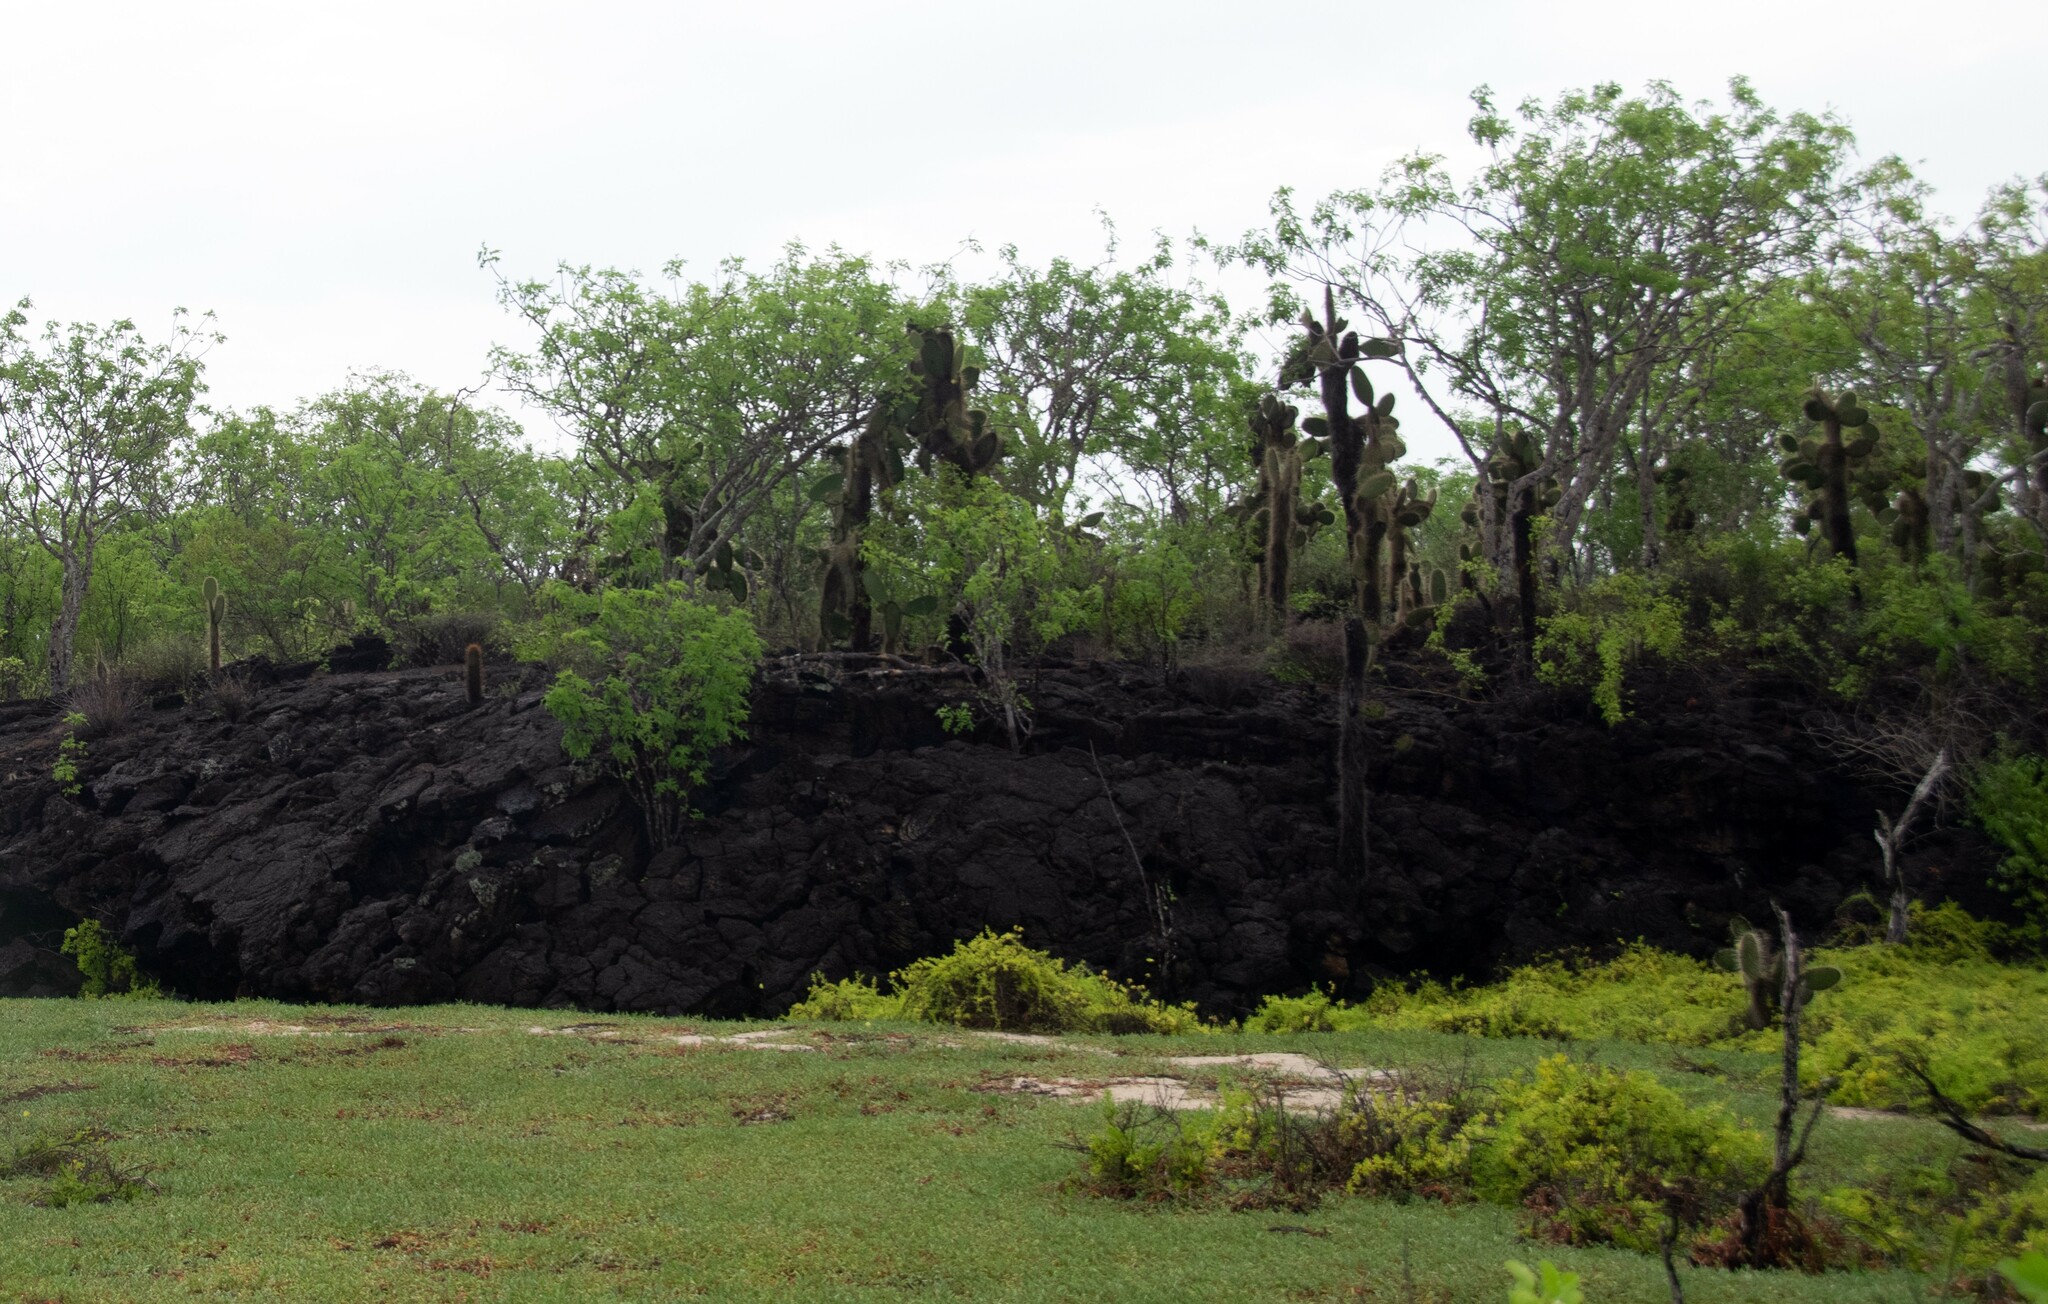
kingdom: Plantae
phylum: Tracheophyta
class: Magnoliopsida
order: Caryophyllales
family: Cactaceae
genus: Opuntia
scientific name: Opuntia galapageia
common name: Galápagos prickly pear
